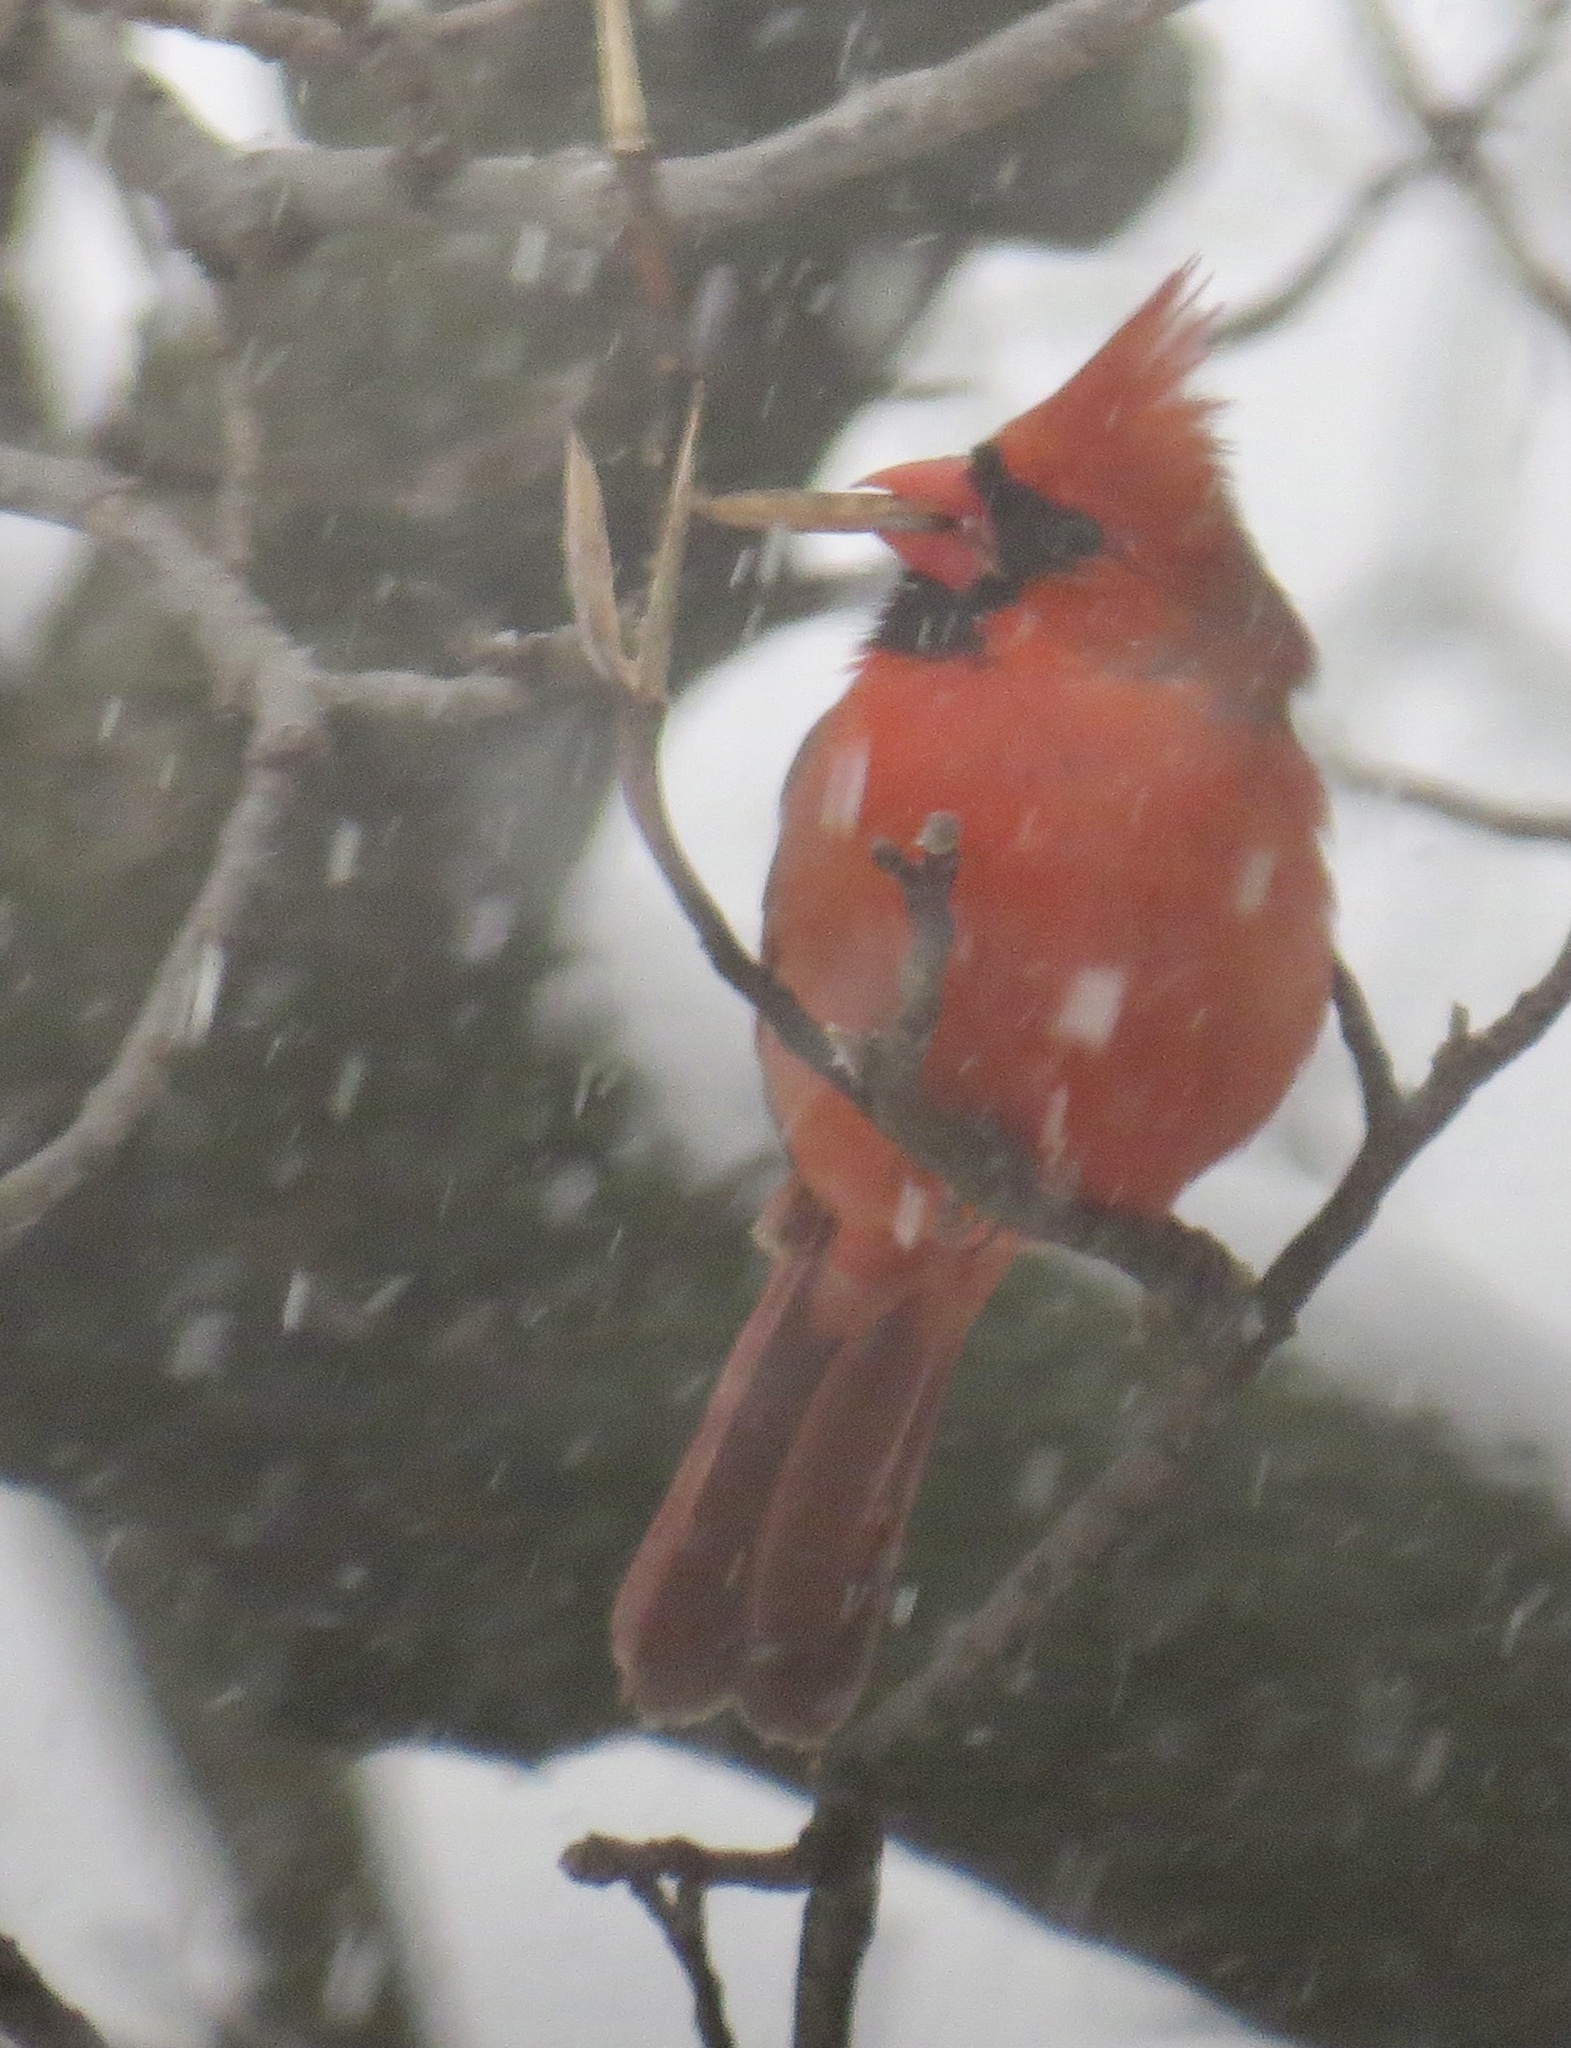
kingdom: Animalia
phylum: Chordata
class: Aves
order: Passeriformes
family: Cardinalidae
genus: Cardinalis
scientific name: Cardinalis cardinalis
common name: Northern cardinal
